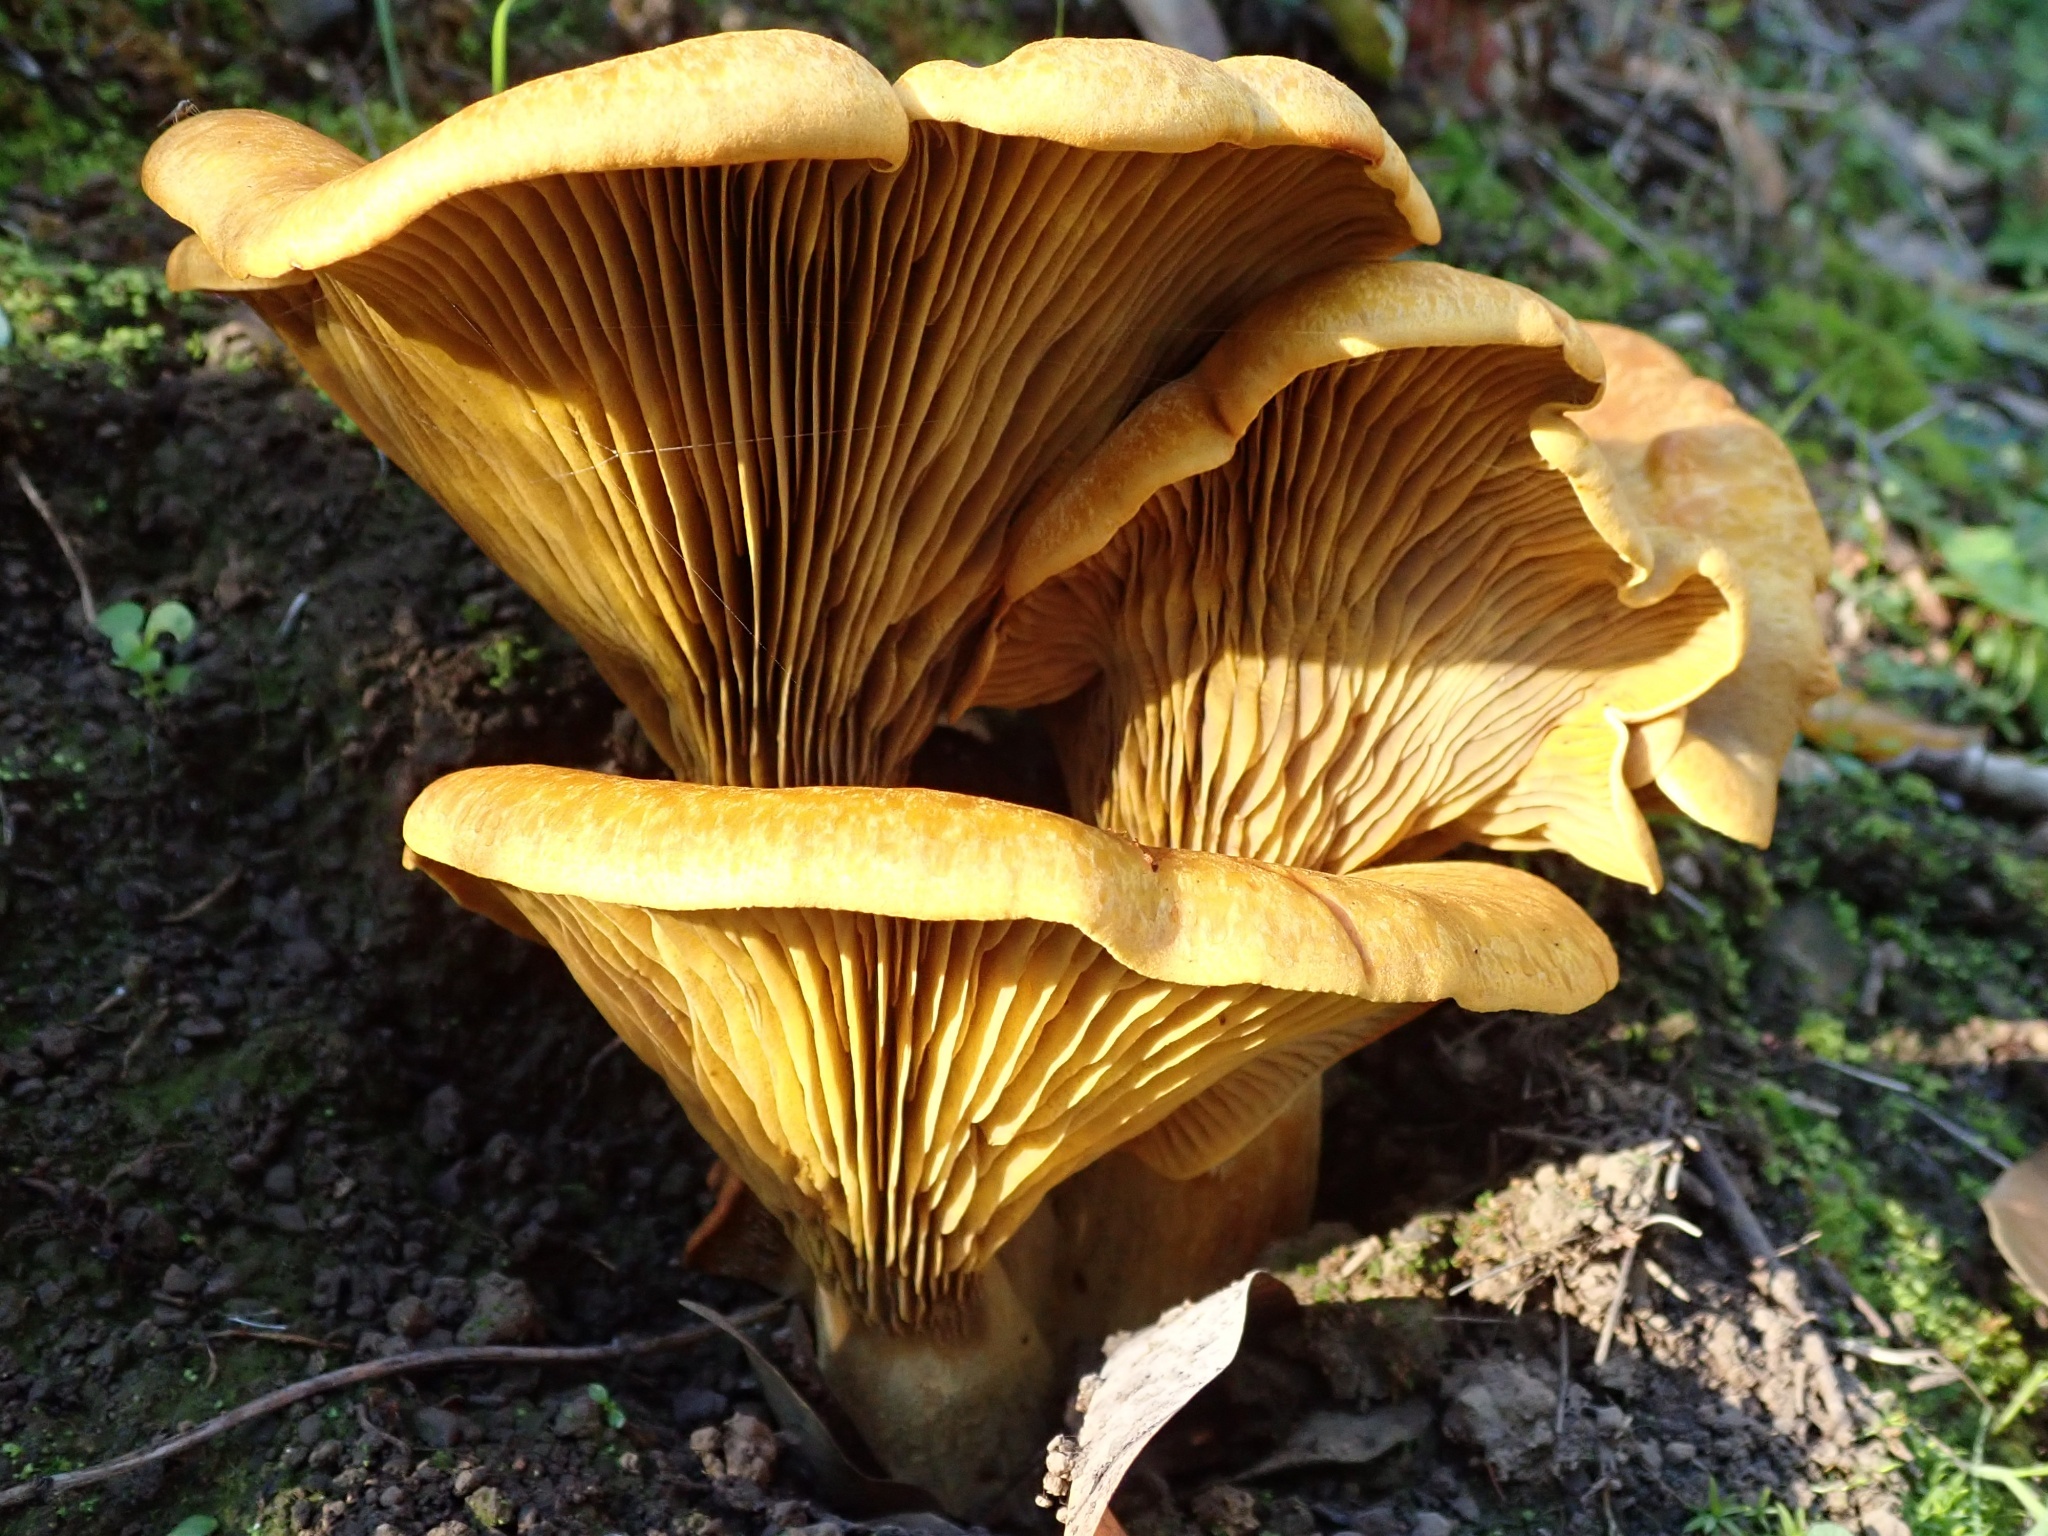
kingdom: Fungi
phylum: Basidiomycota
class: Agaricomycetes
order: Agaricales
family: Omphalotaceae
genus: Omphalotus
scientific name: Omphalotus olivascens
